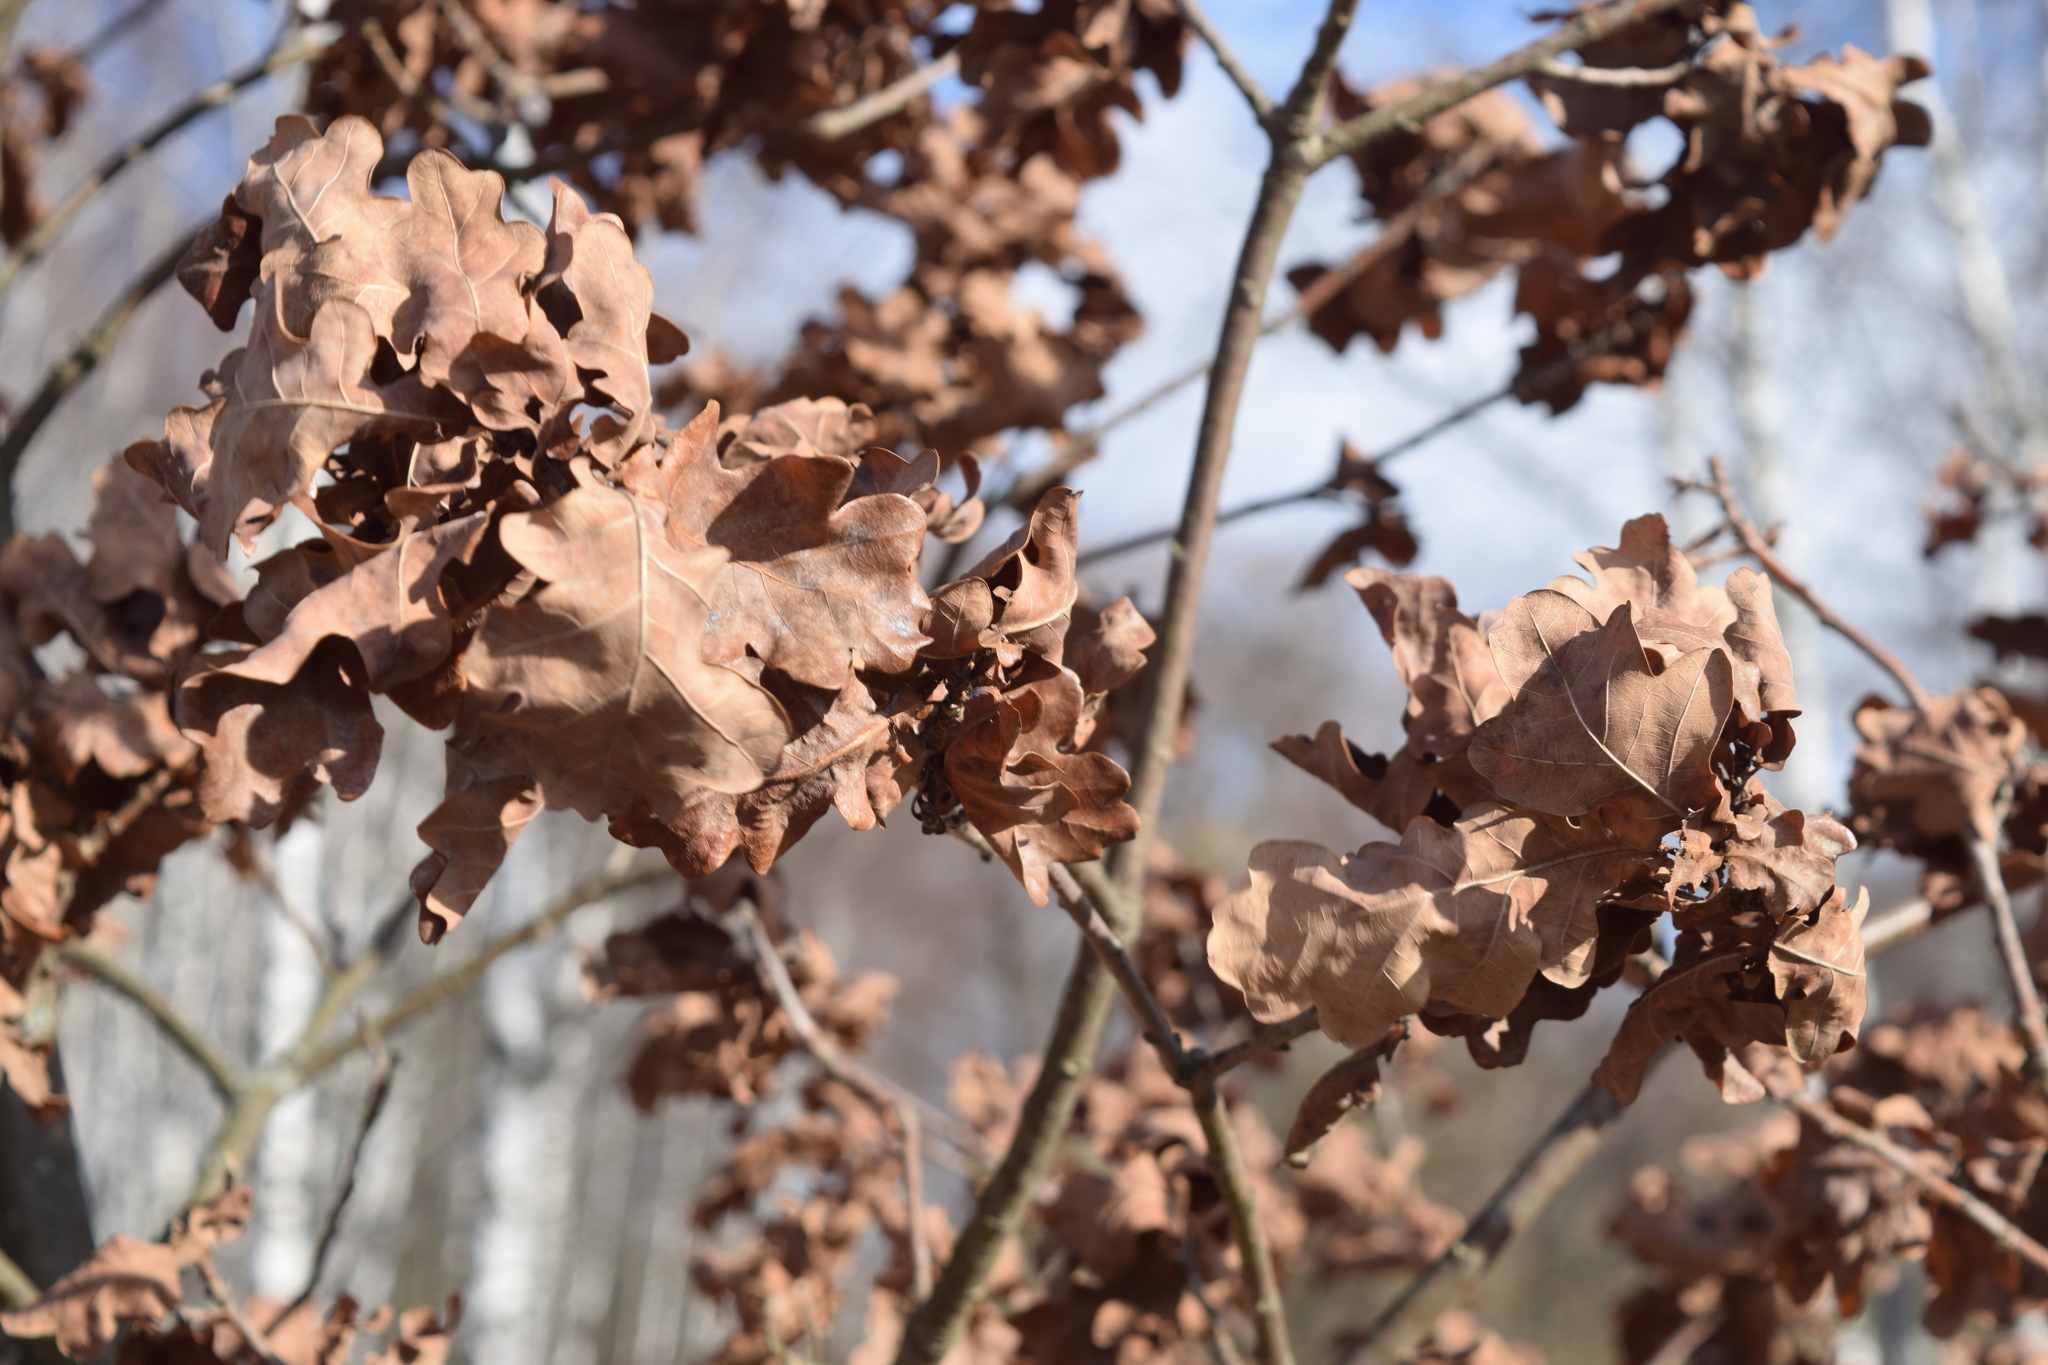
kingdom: Plantae
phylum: Tracheophyta
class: Magnoliopsida
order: Fagales
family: Fagaceae
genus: Quercus
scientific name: Quercus robur
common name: Pedunculate oak
